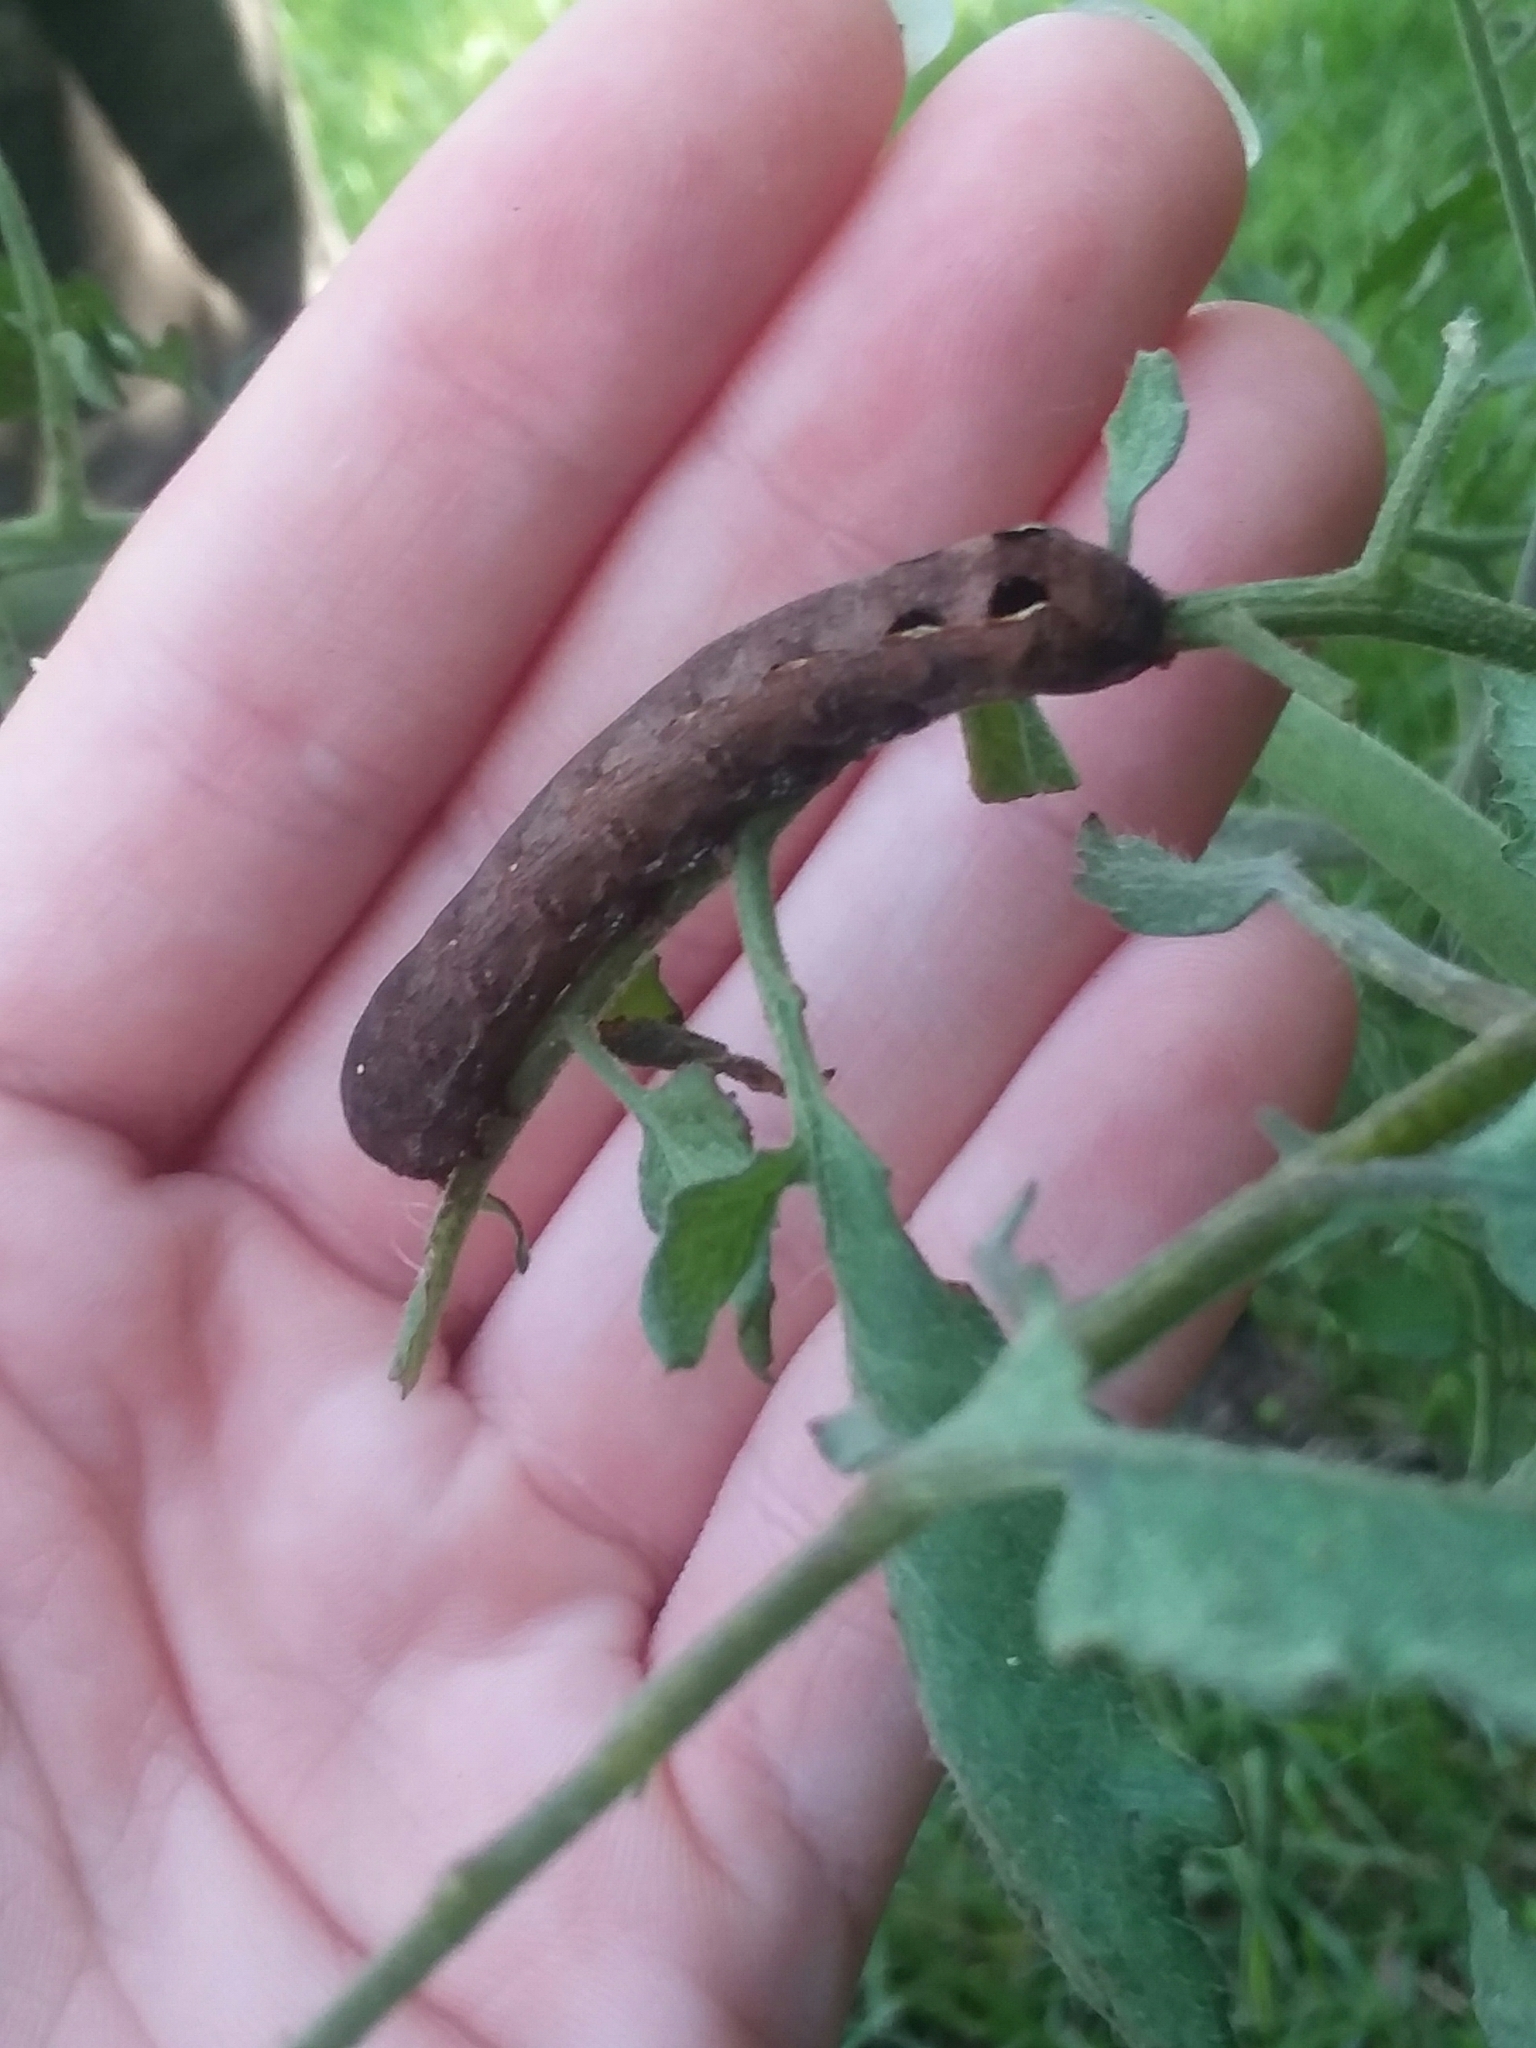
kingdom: Animalia
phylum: Arthropoda
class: Insecta
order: Lepidoptera
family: Noctuidae
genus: Spodoptera
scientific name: Spodoptera dolichos
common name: Sweetpotato armyworm
